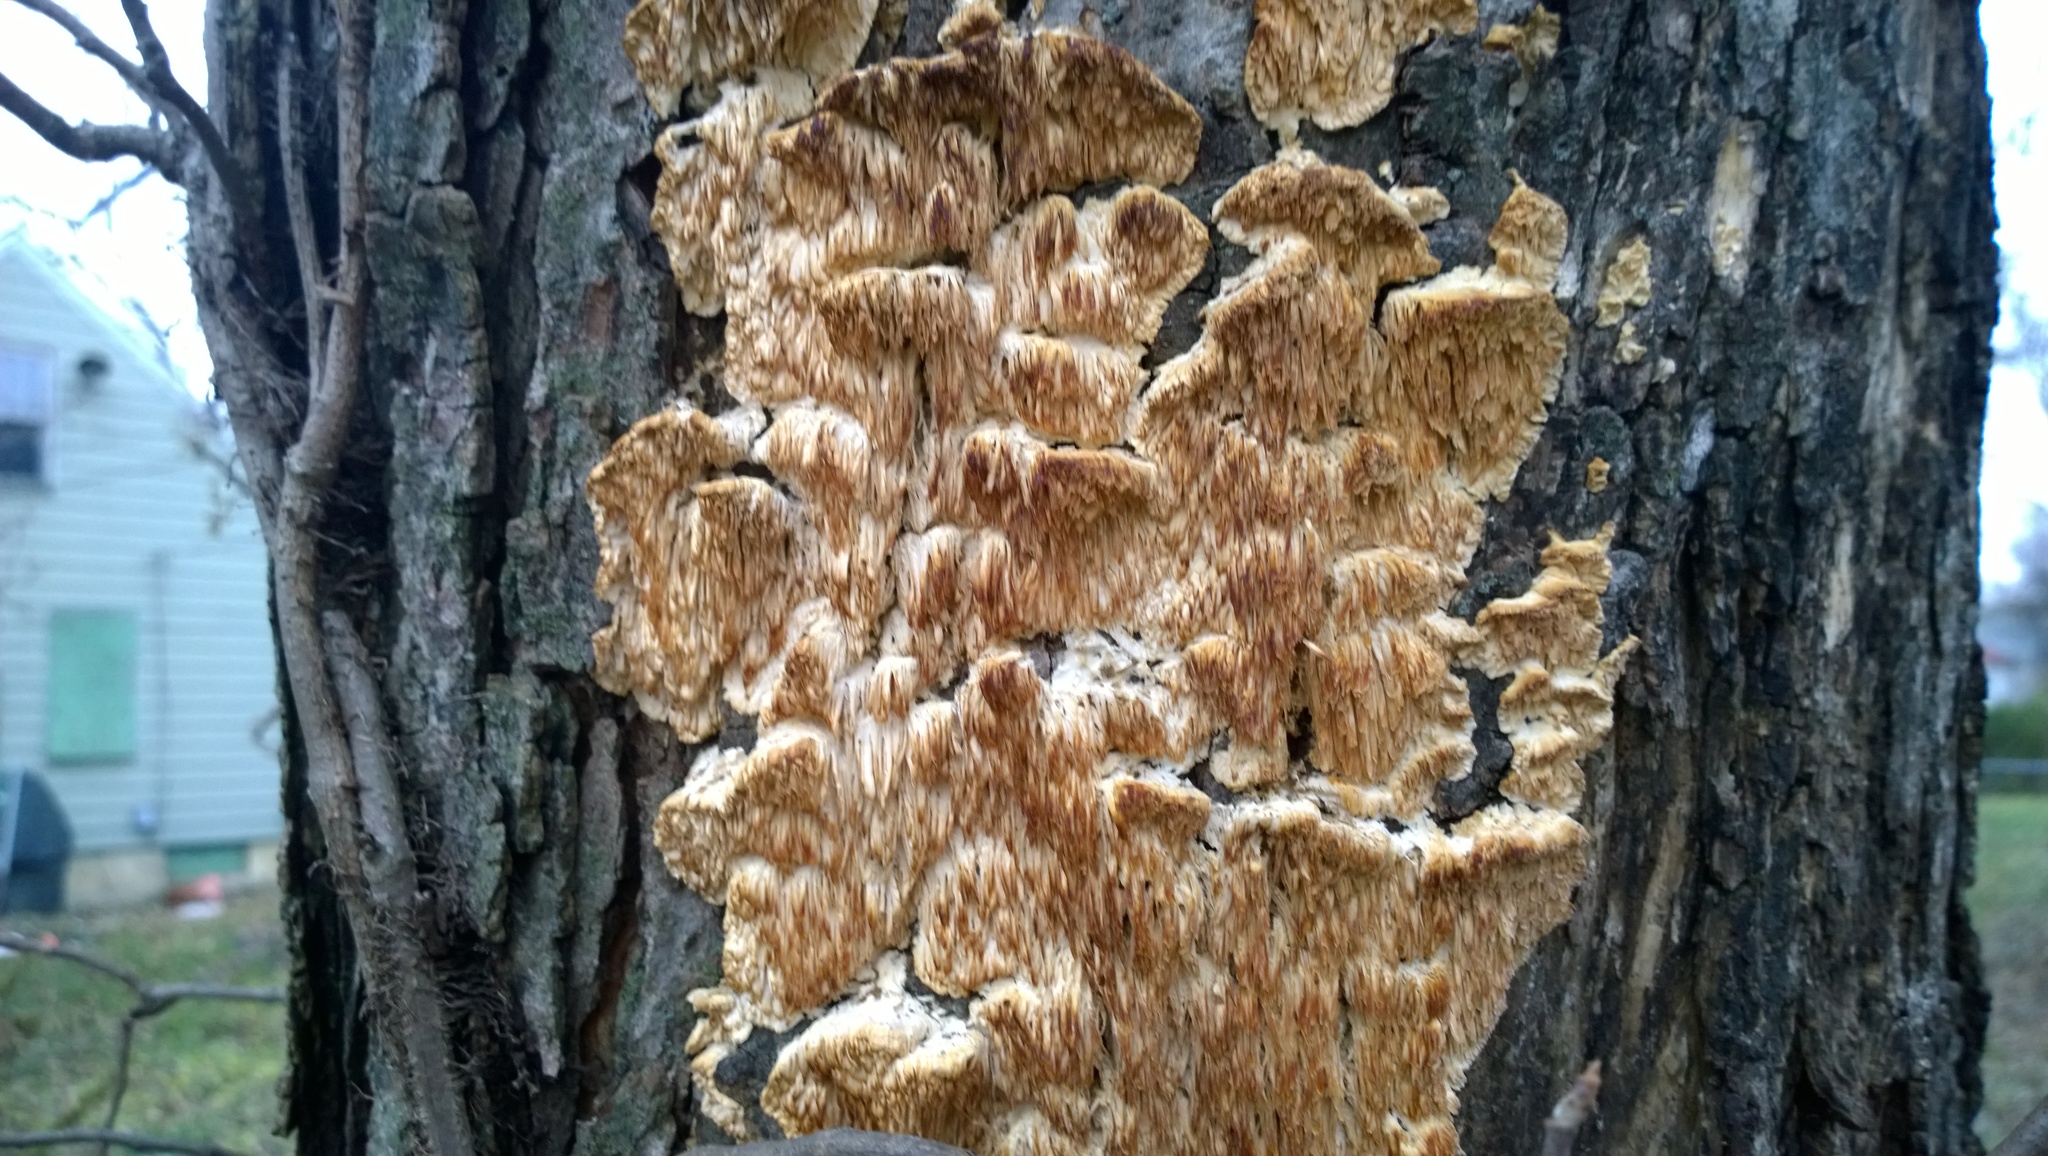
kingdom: Fungi
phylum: Basidiomycota
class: Agaricomycetes
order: Polyporales
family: Meruliaceae
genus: Irpiciporus
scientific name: Irpiciporus pachyodon
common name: Marshmallow polypore
